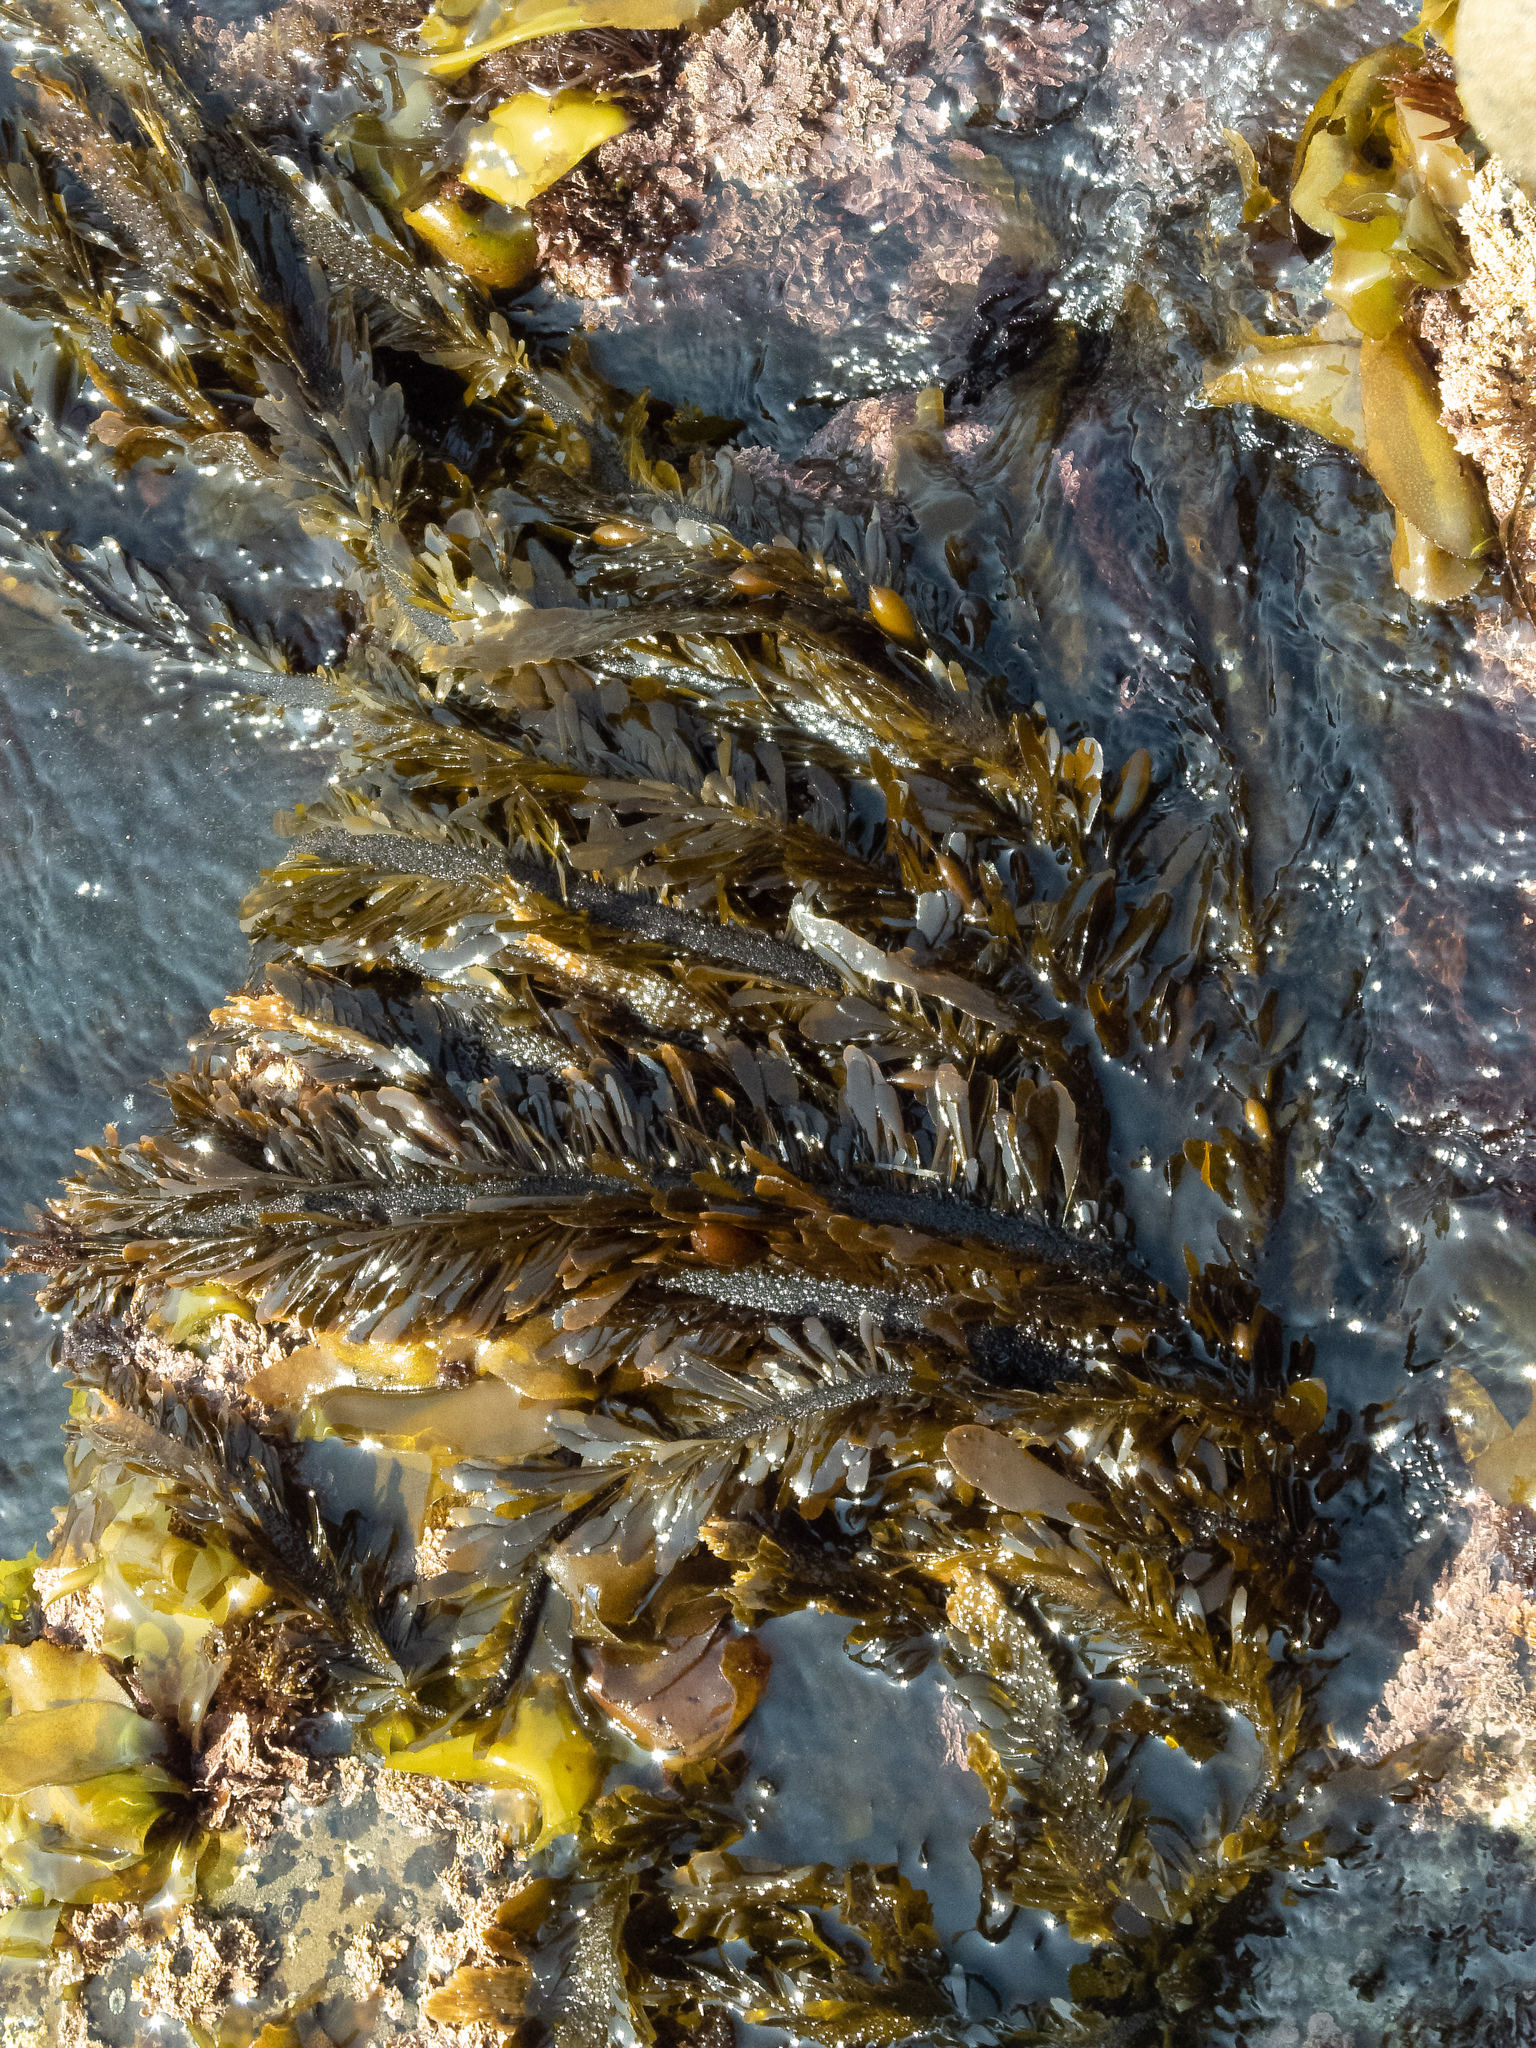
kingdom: Chromista
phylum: Ochrophyta
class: Phaeophyceae
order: Laminariales
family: Lessoniaceae
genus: Egregia
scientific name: Egregia menziesii
